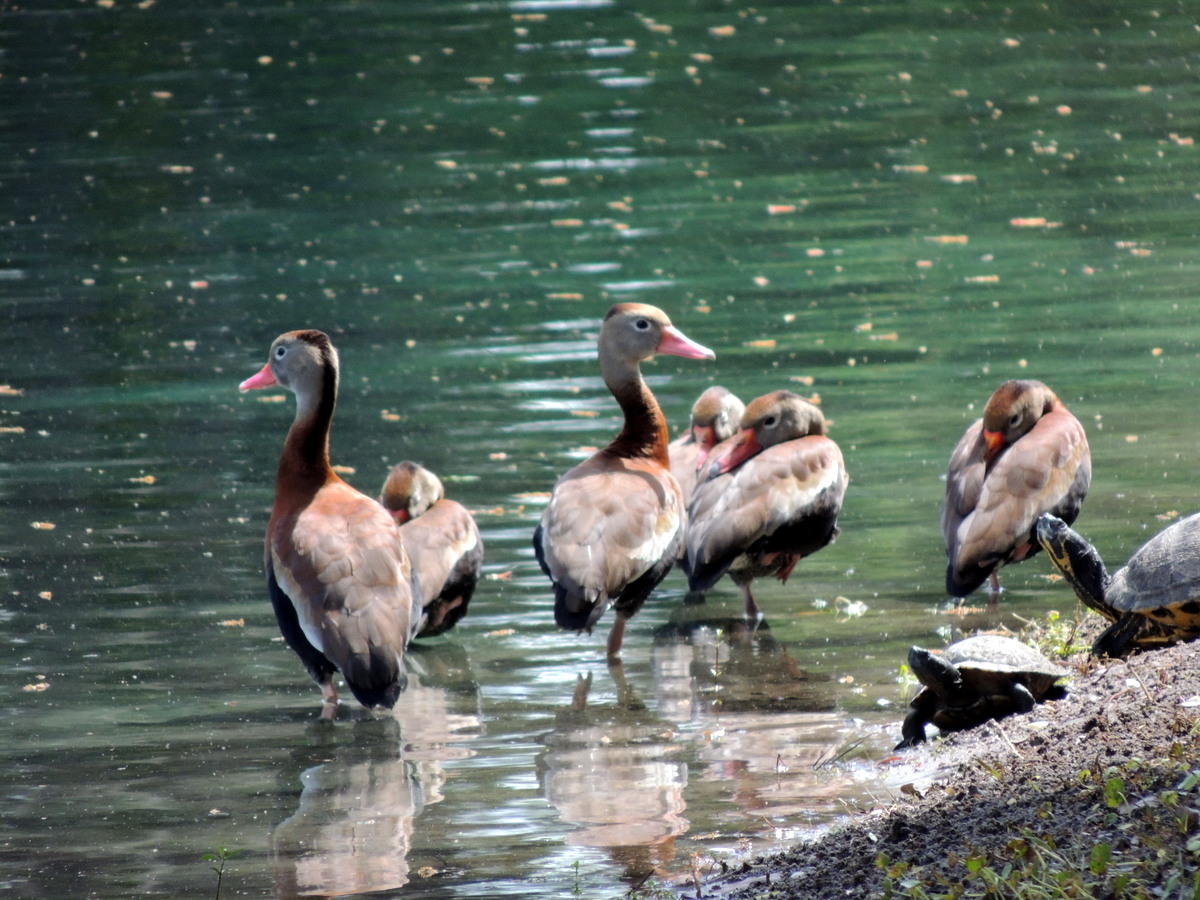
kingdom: Animalia
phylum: Chordata
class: Aves
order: Anseriformes
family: Anatidae
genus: Dendrocygna
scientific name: Dendrocygna autumnalis
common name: Black-bellied whistling duck
